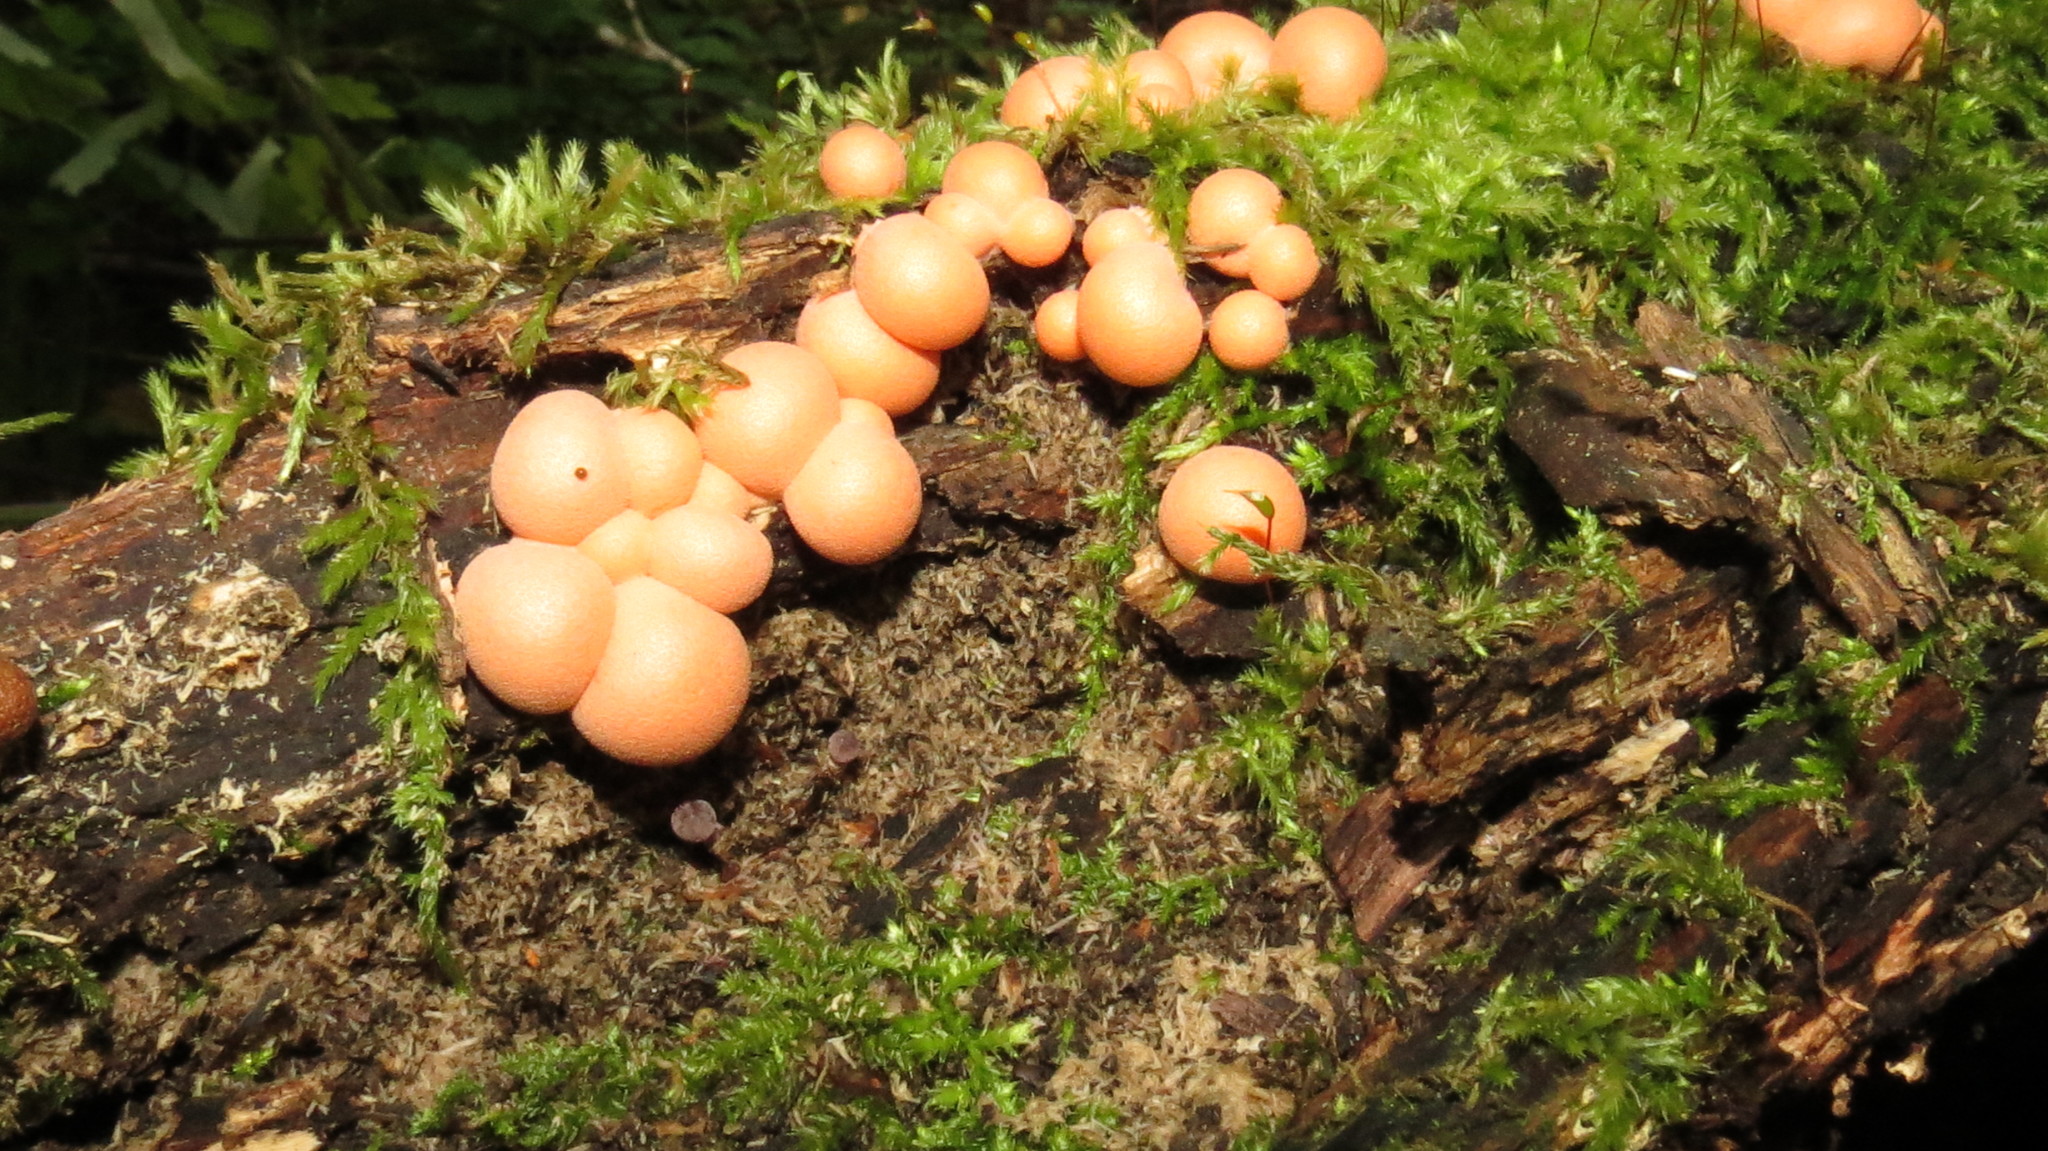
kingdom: Protozoa
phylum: Mycetozoa
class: Myxomycetes
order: Cribrariales
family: Tubiferaceae
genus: Lycogala
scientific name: Lycogala epidendrum
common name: Wolf's milk
